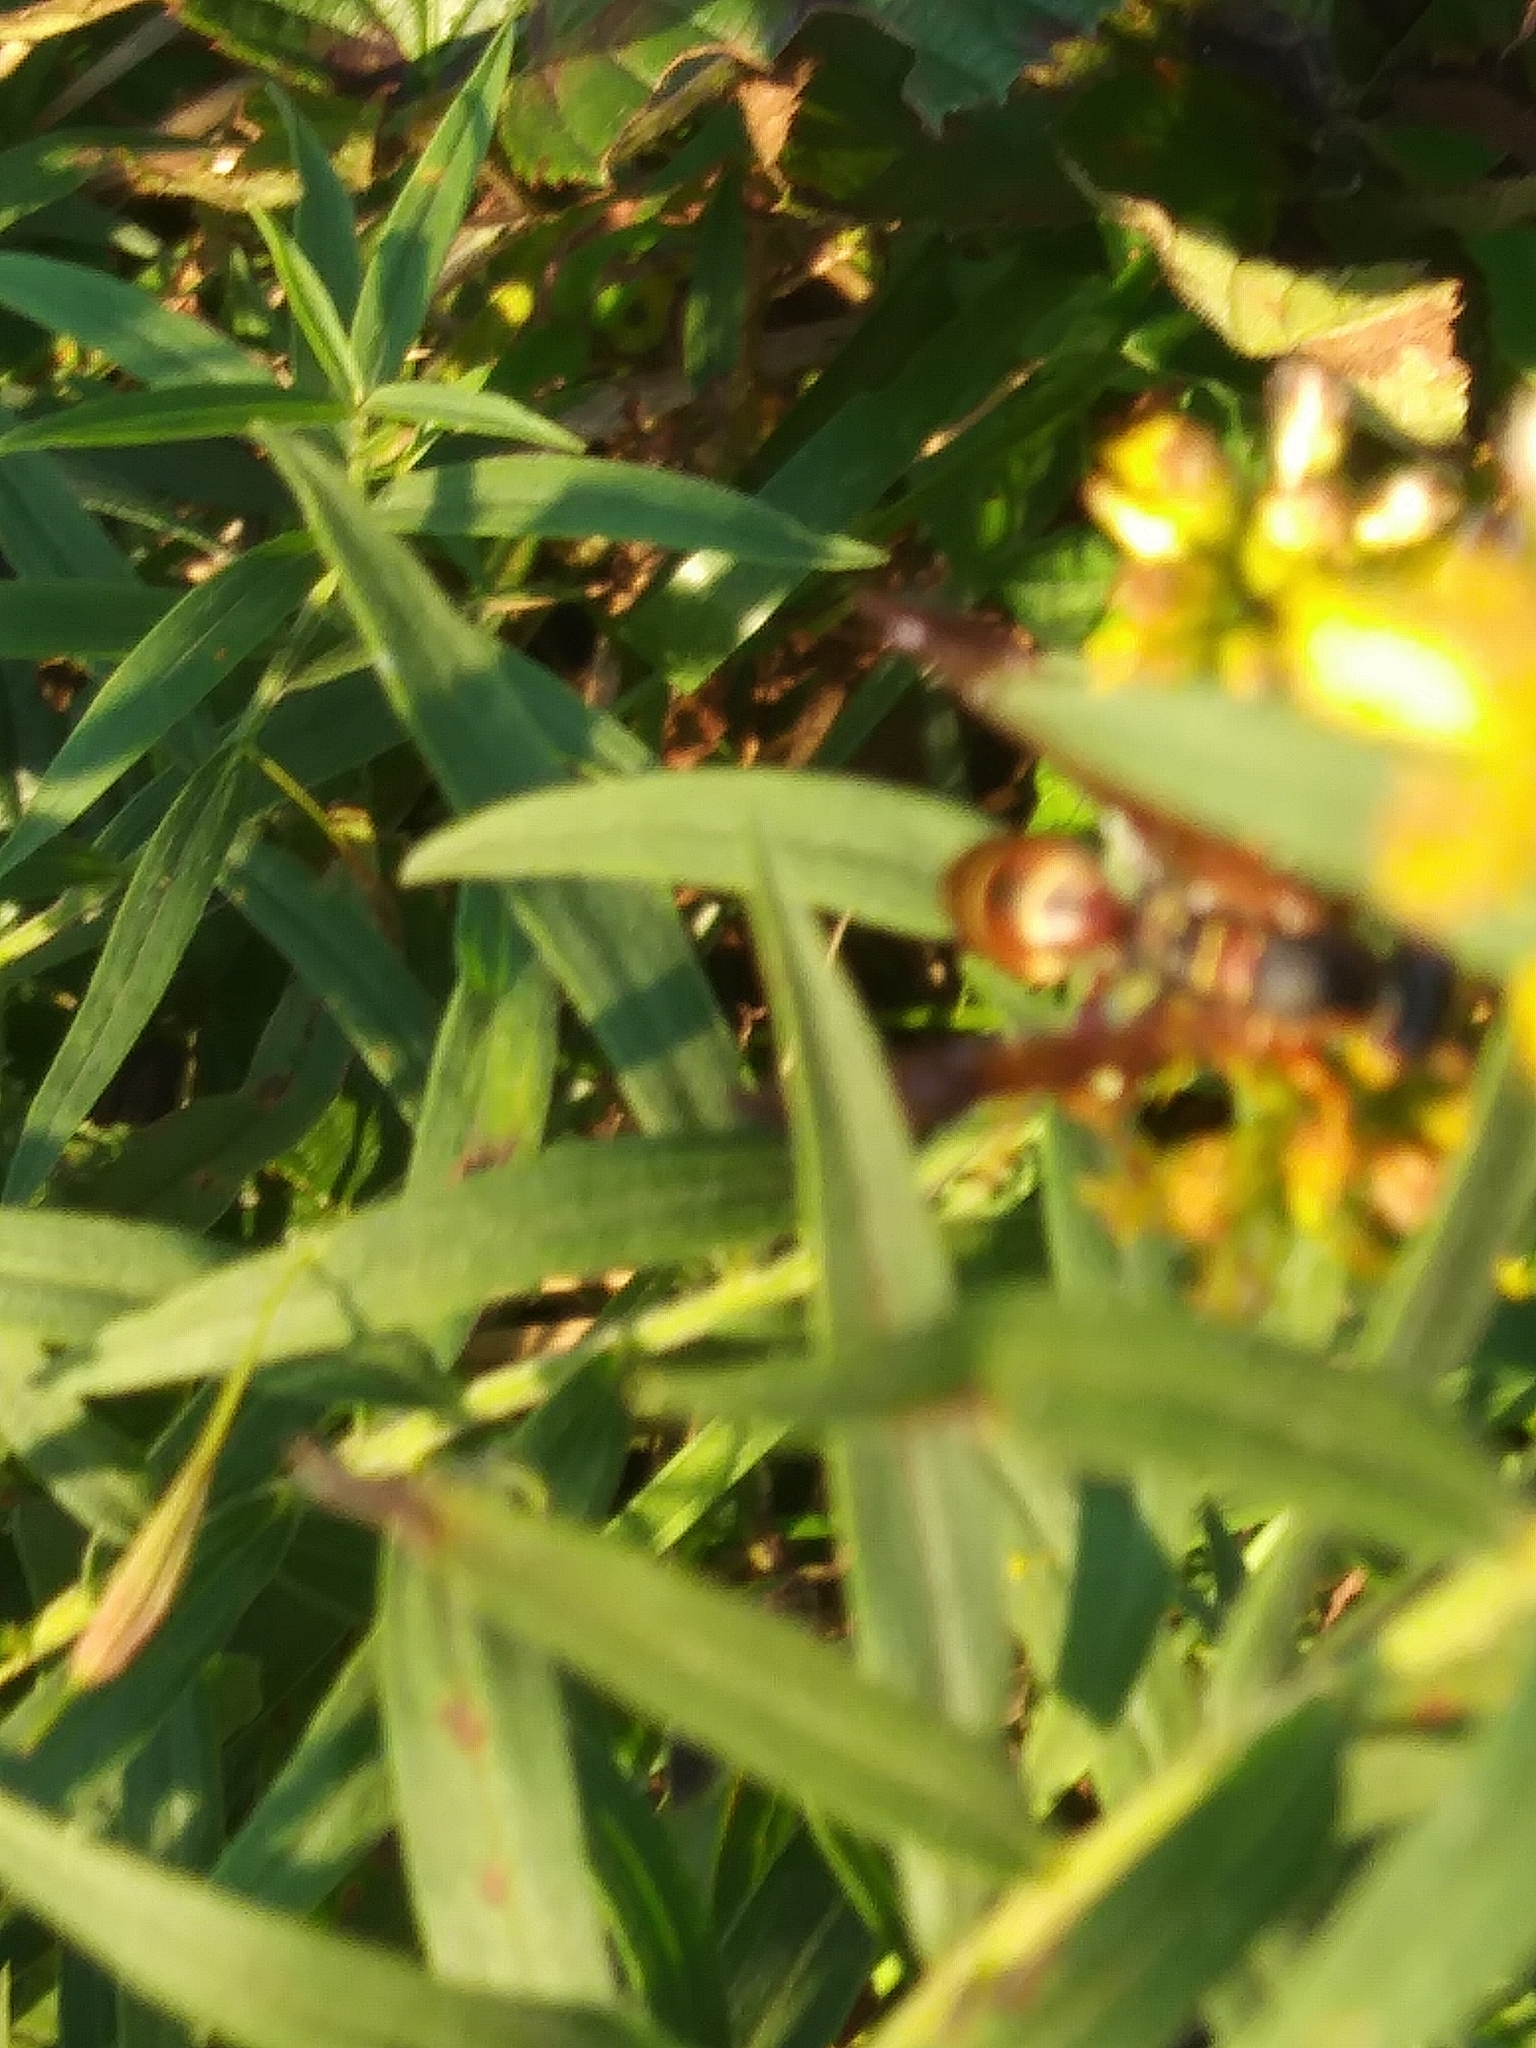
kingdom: Animalia
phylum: Arthropoda
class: Insecta
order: Hymenoptera
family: Vespidae
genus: Fuscopolistes
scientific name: Fuscopolistes
